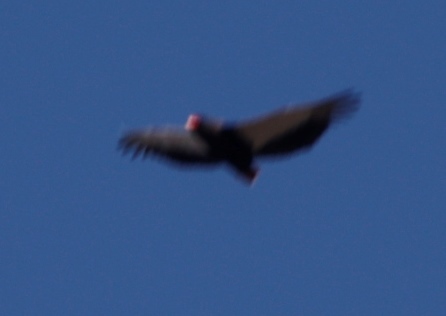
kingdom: Animalia
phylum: Chordata
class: Aves
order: Accipitriformes
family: Accipitridae
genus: Terathopius
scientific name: Terathopius ecaudatus
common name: Bateleur
